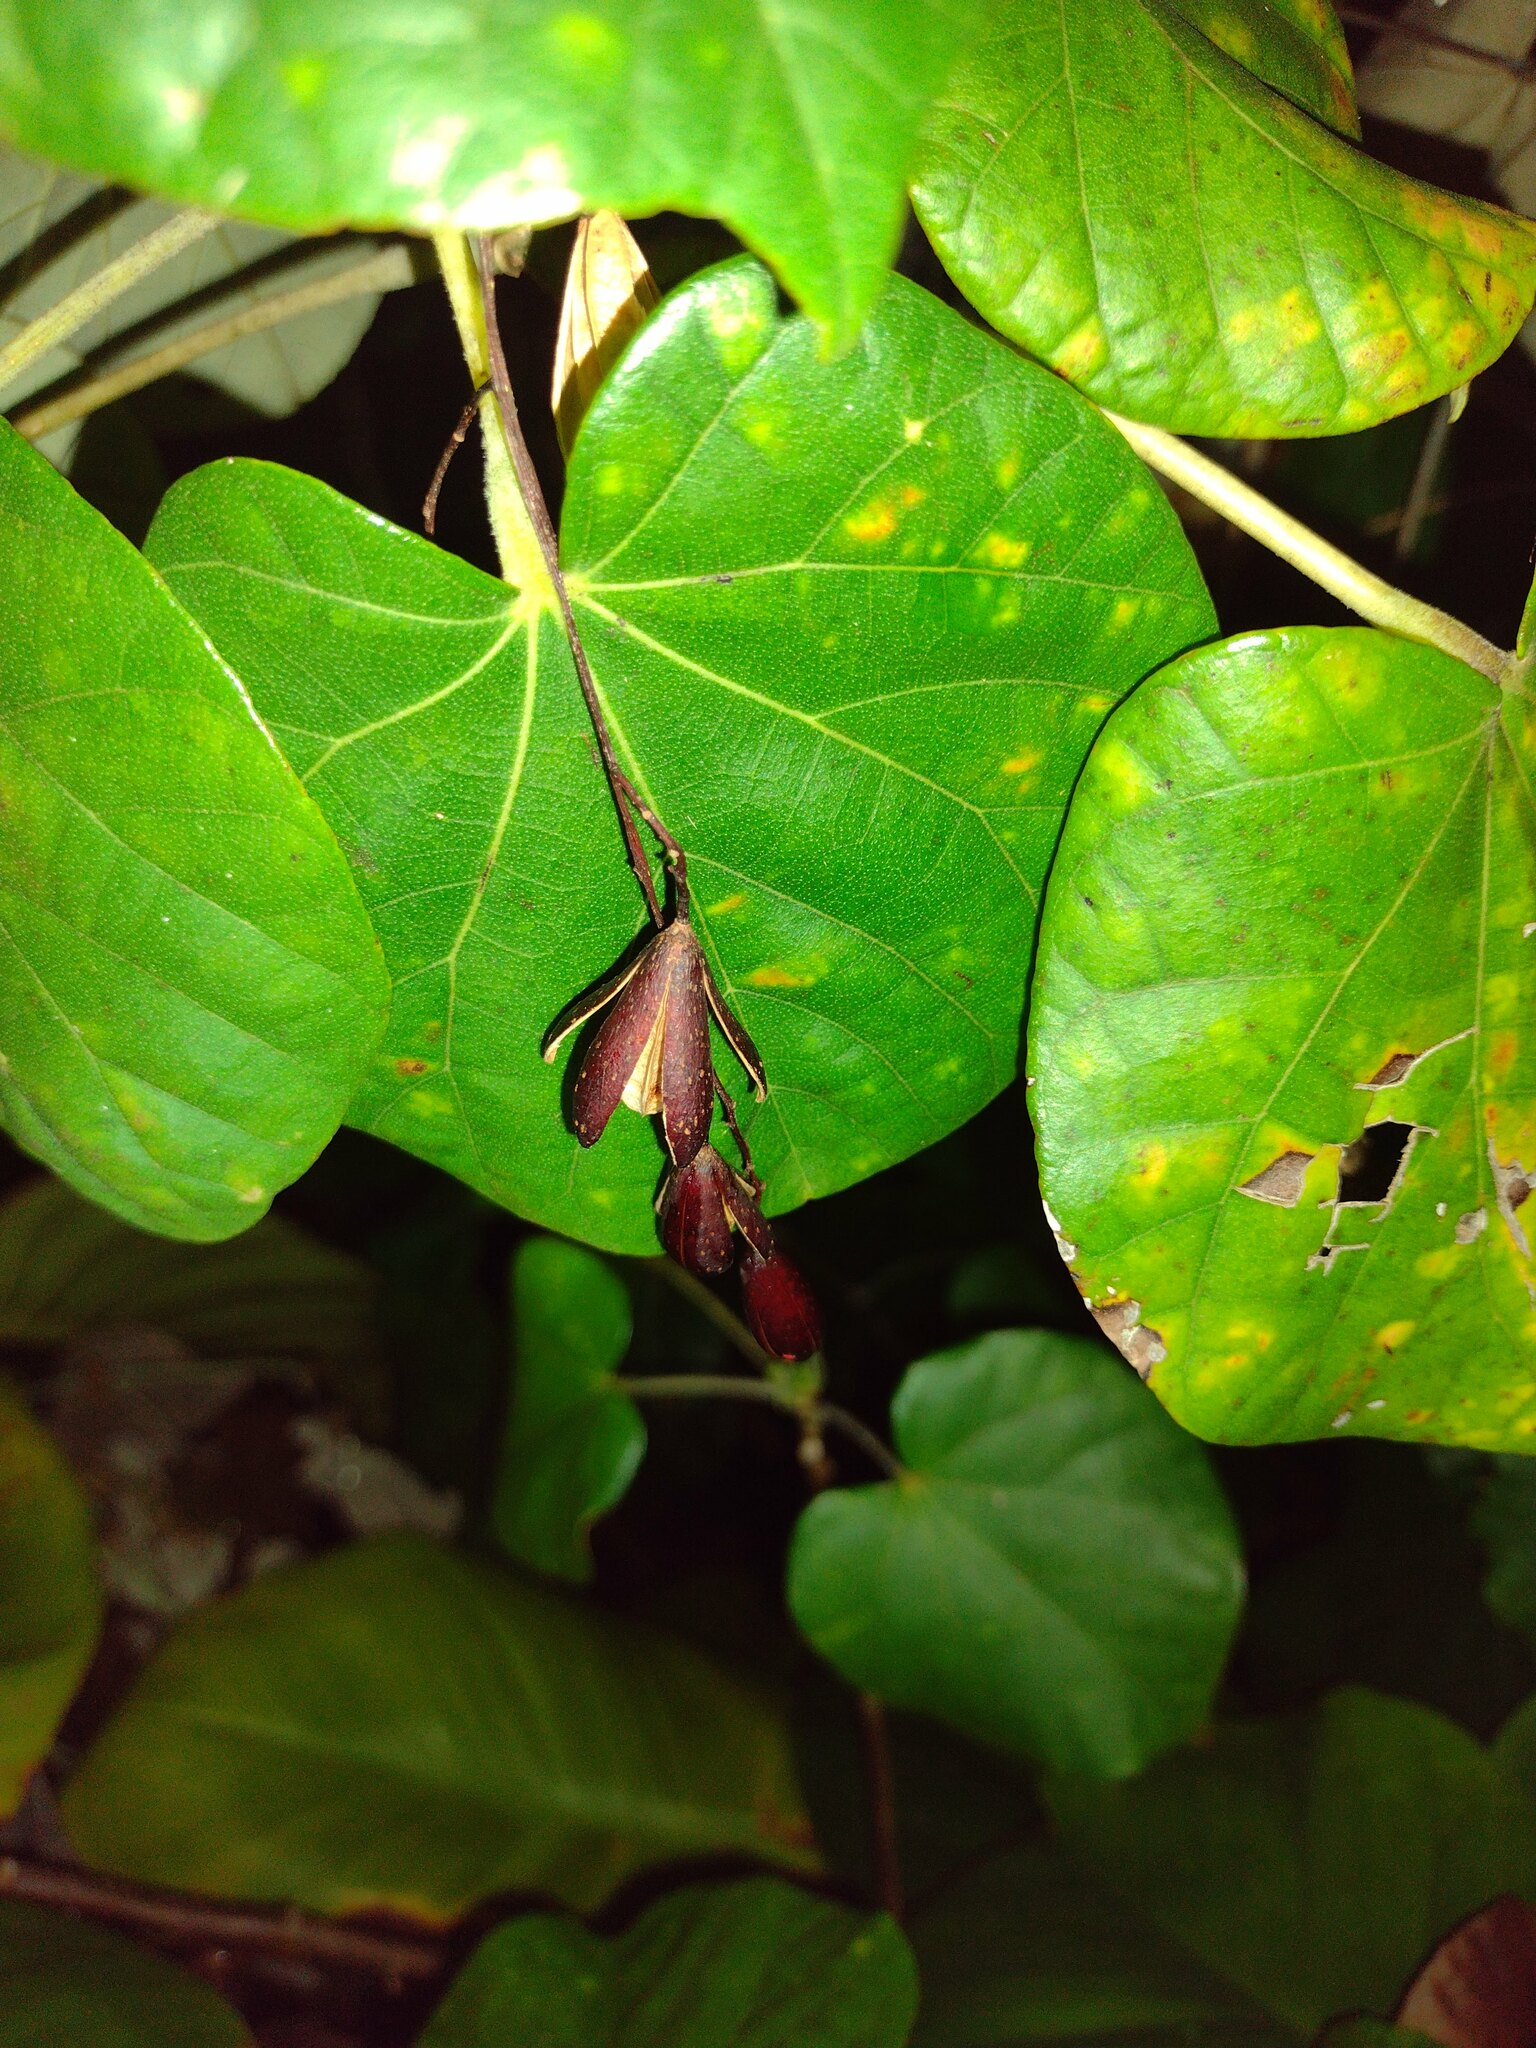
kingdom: Plantae
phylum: Tracheophyta
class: Magnoliopsida
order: Sapindales
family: Meliaceae
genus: Toona
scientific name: Toona ciliata
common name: Australian redcedar
